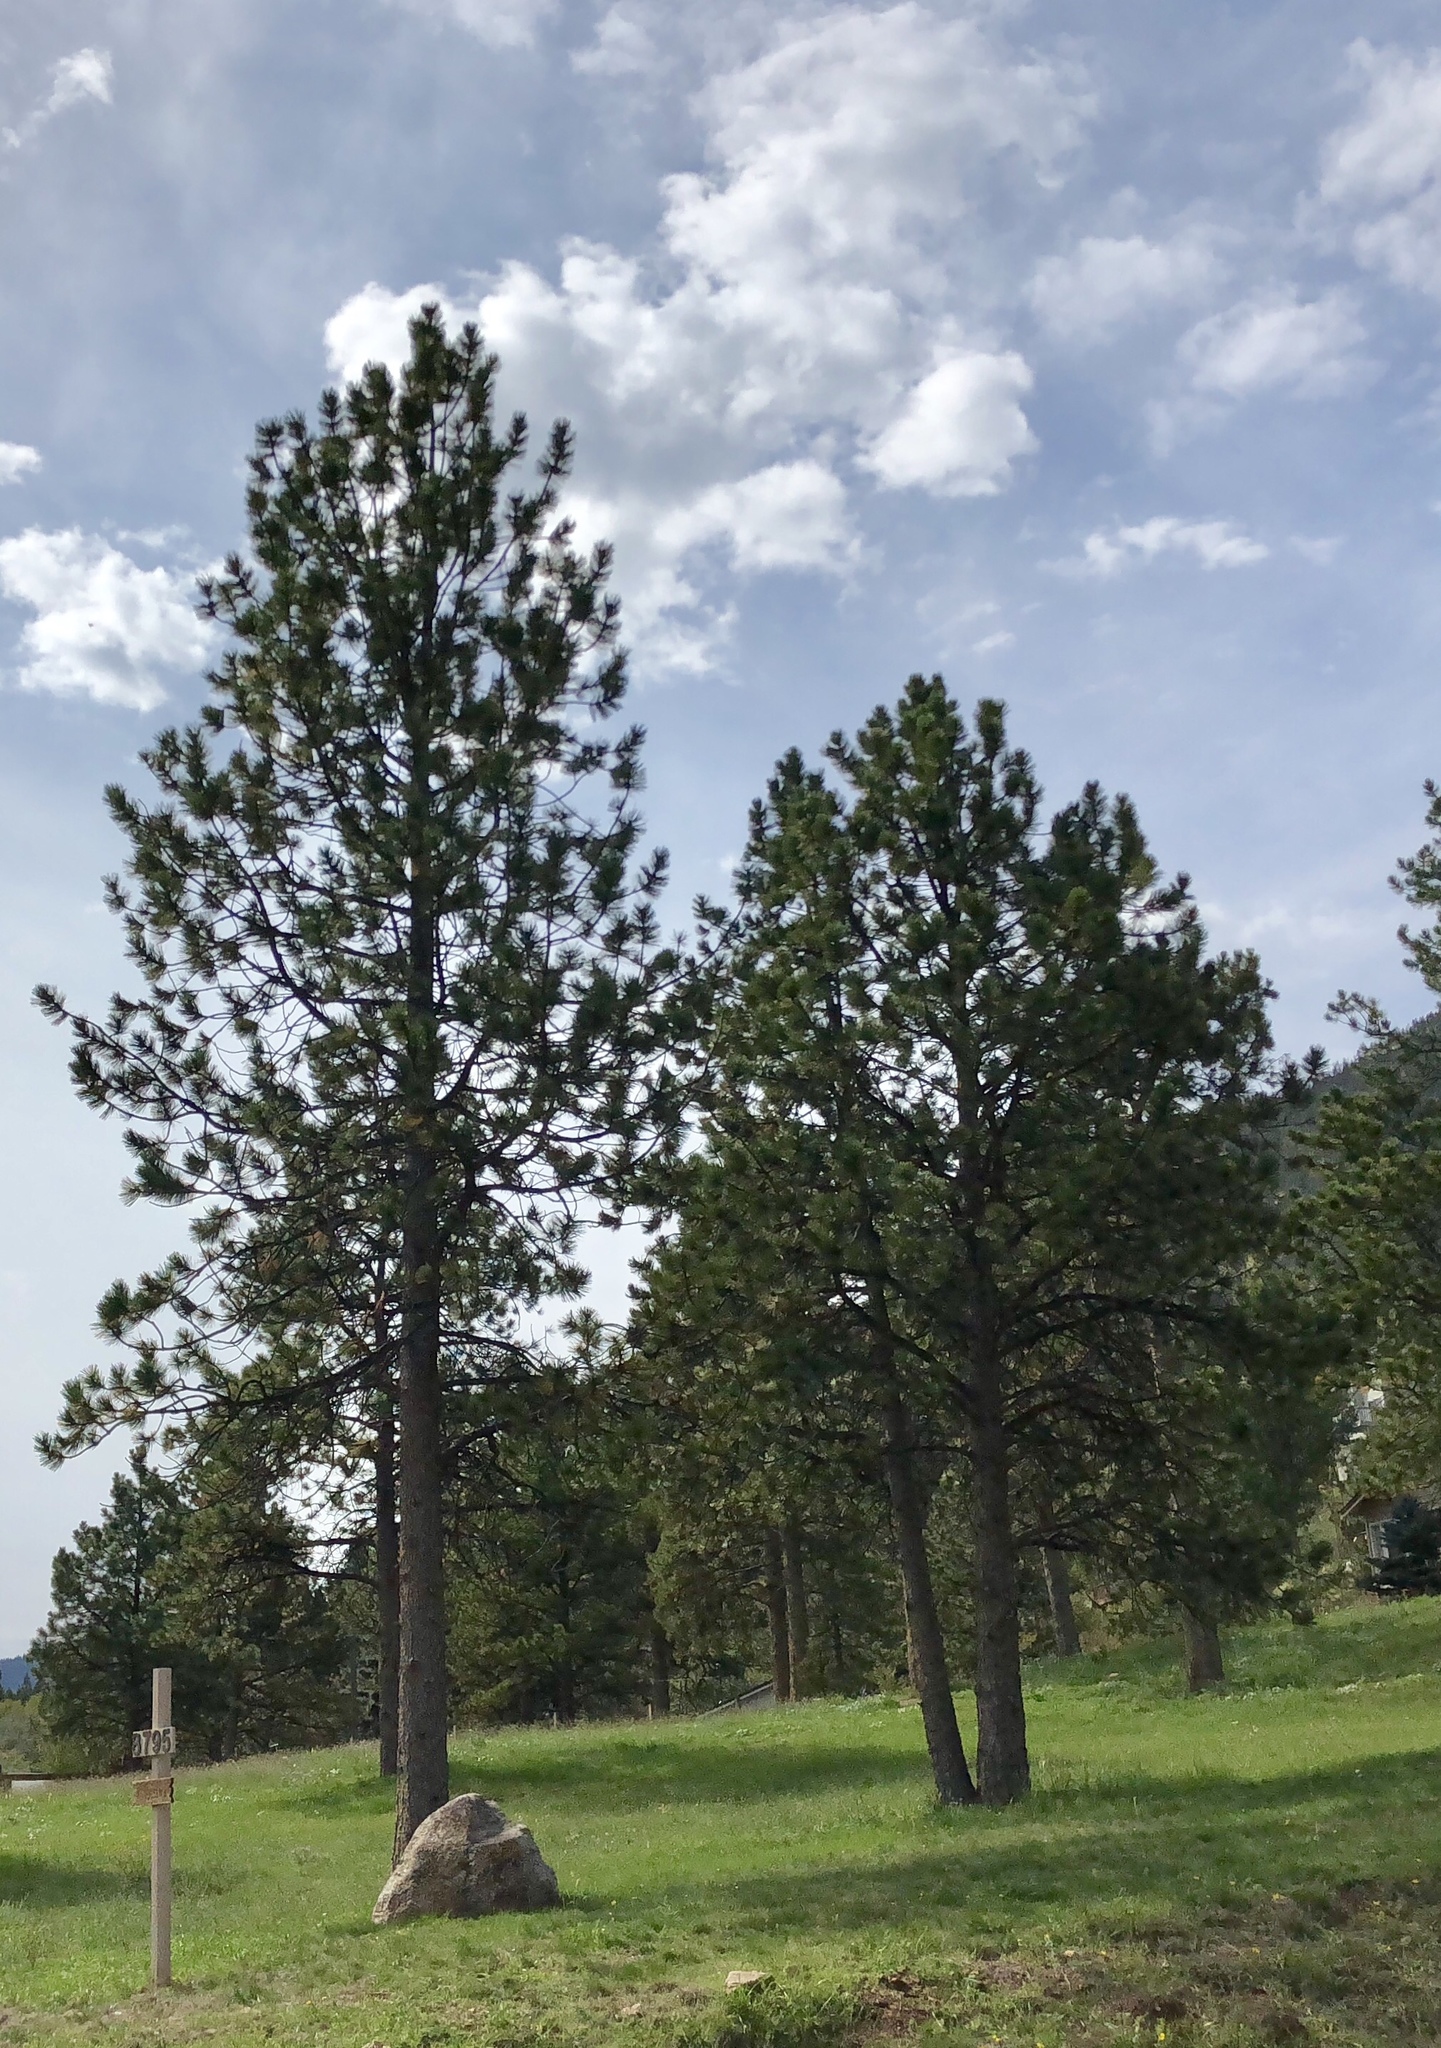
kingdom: Plantae
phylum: Tracheophyta
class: Pinopsida
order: Pinales
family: Pinaceae
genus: Pinus
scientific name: Pinus ponderosa
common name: Western yellow-pine
